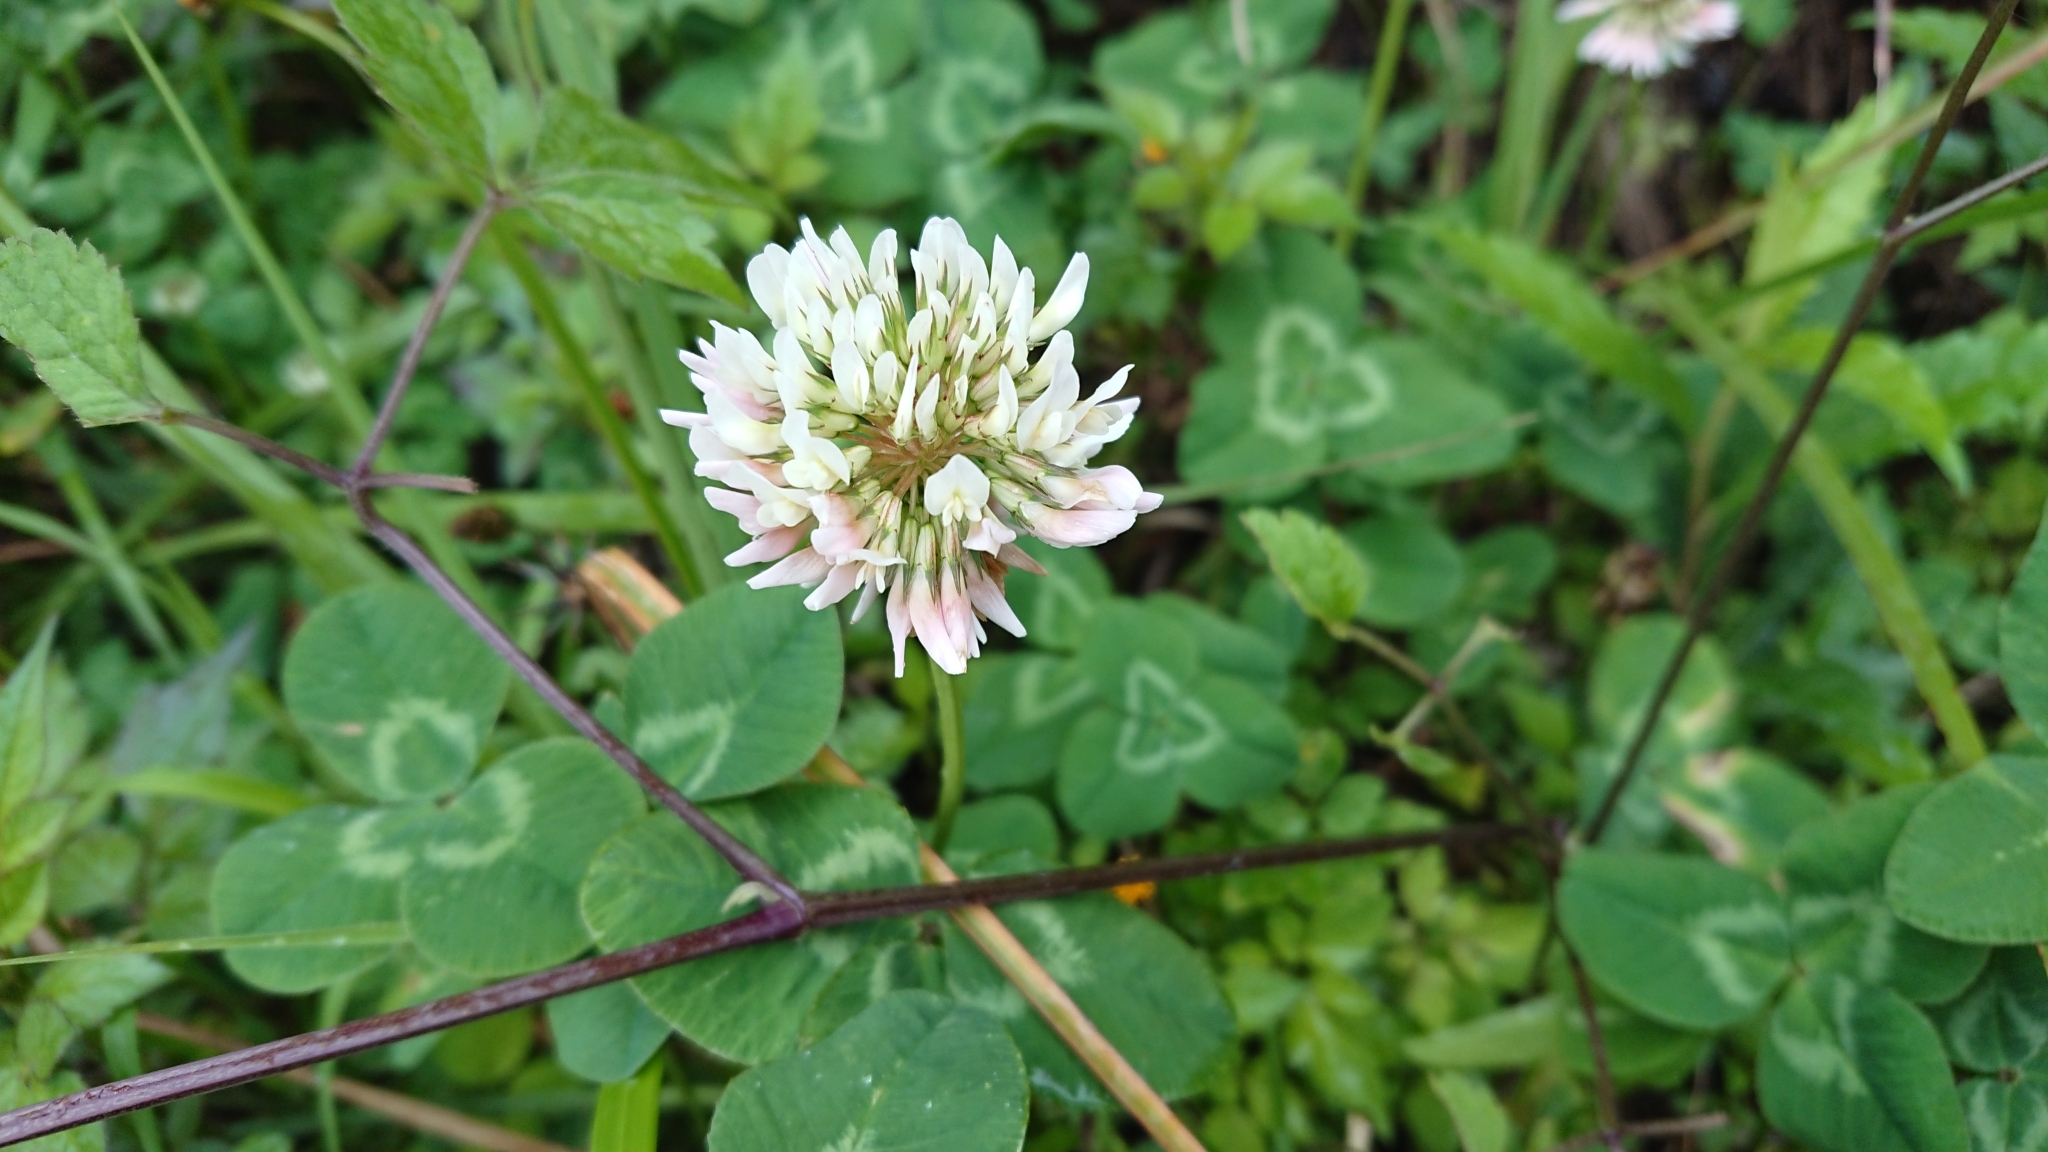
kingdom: Plantae
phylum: Tracheophyta
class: Magnoliopsida
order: Fabales
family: Fabaceae
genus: Trifolium
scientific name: Trifolium repens
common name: White clover
